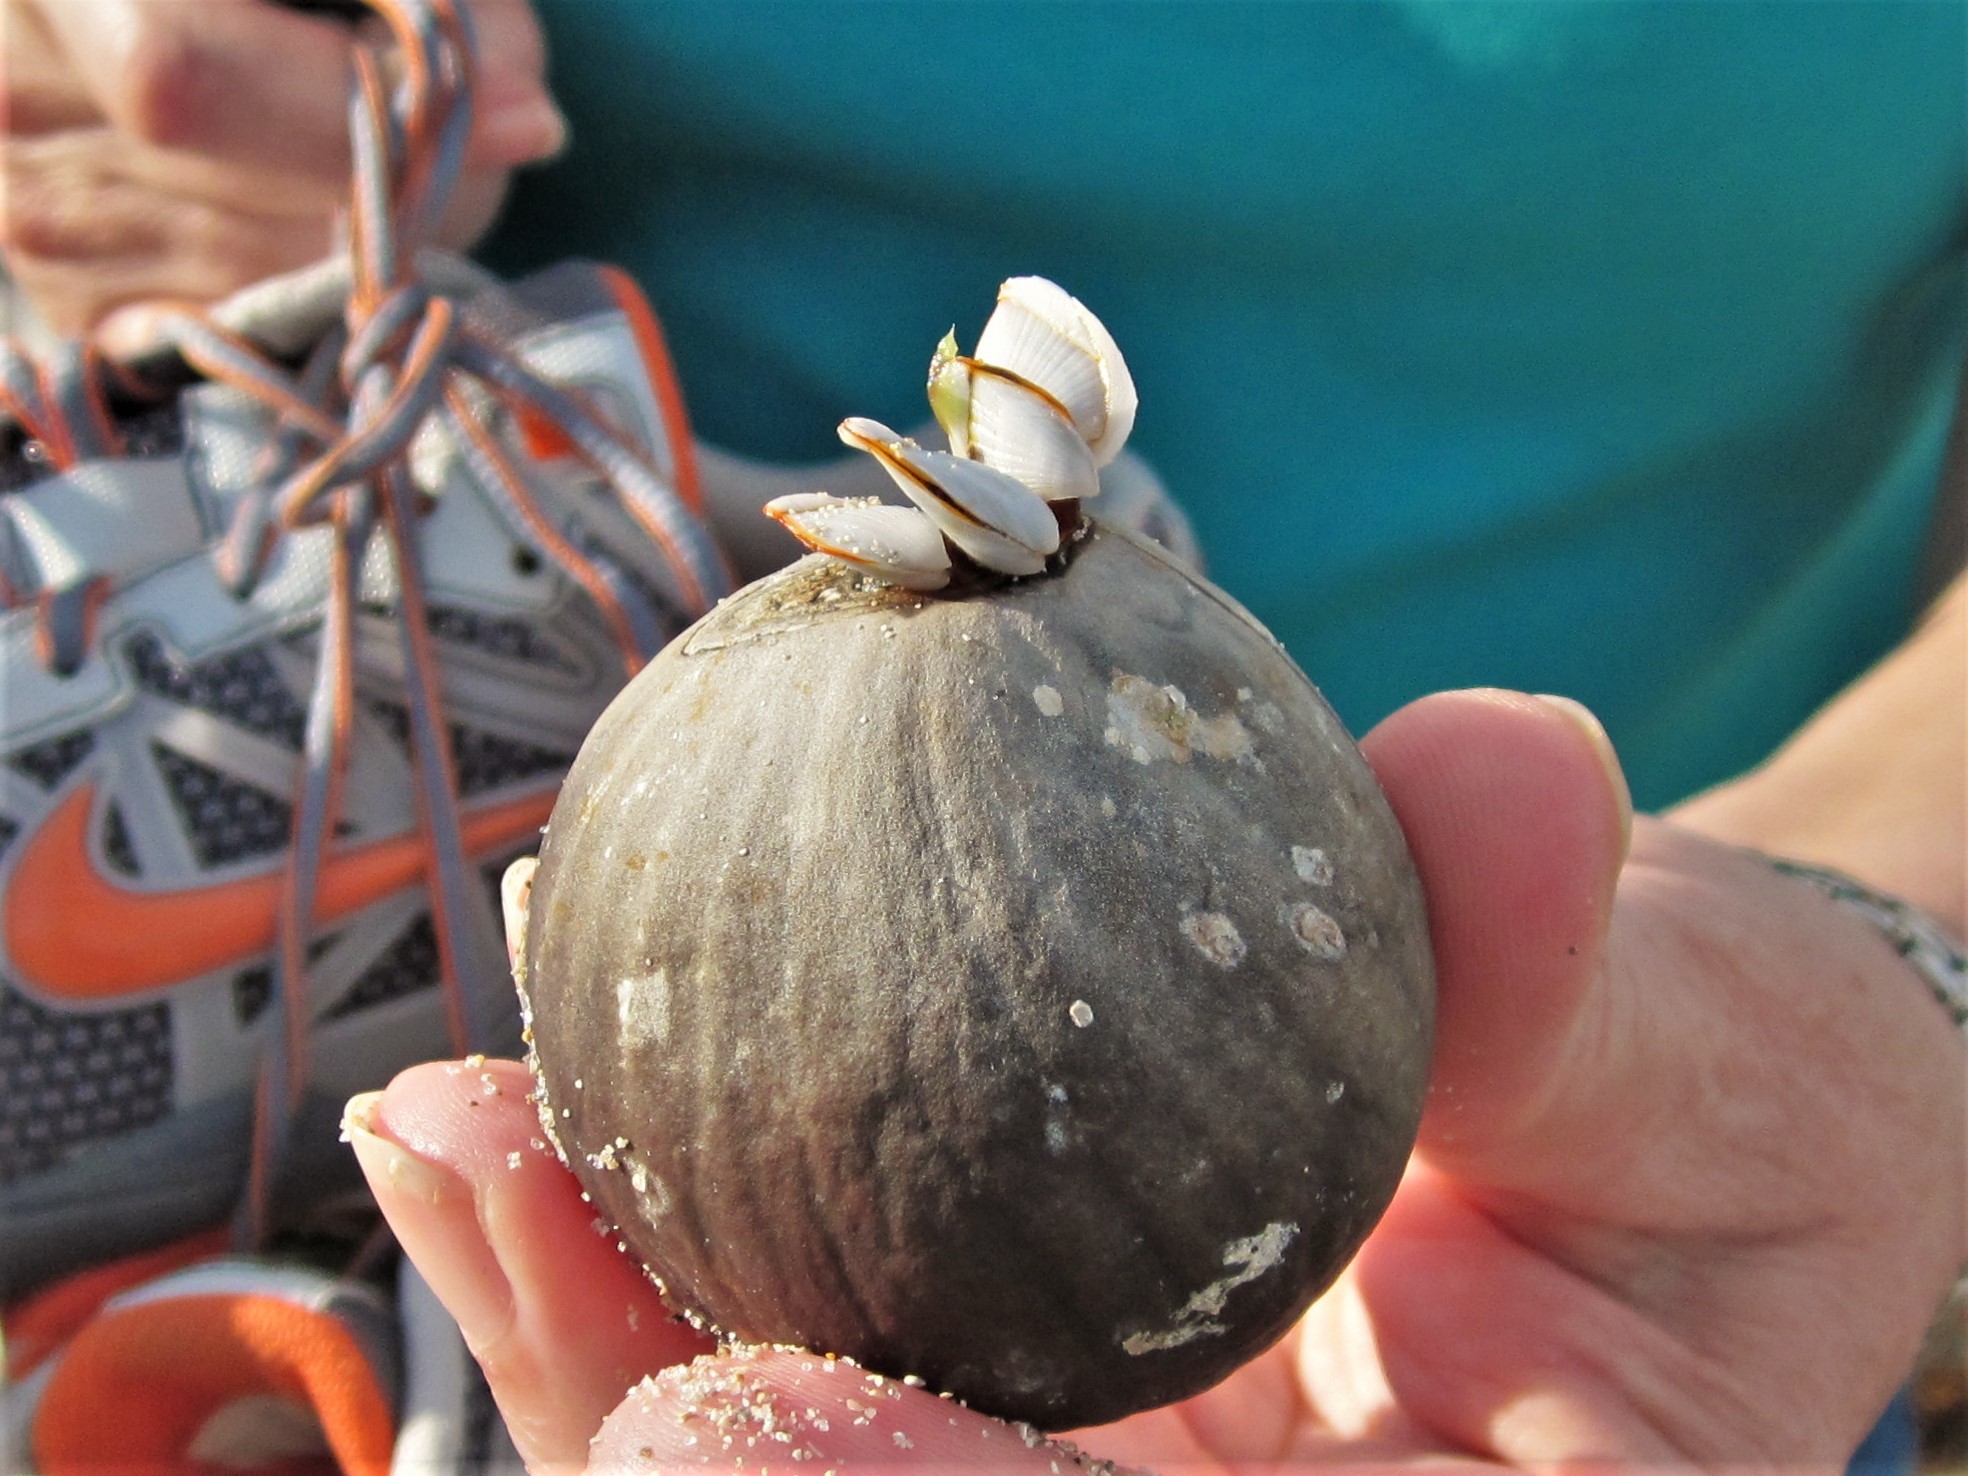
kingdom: Plantae
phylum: Tracheophyta
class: Liliopsida
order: Arecales
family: Arecaceae
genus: Manicaria
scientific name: Manicaria saccifera
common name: Sea coconut
